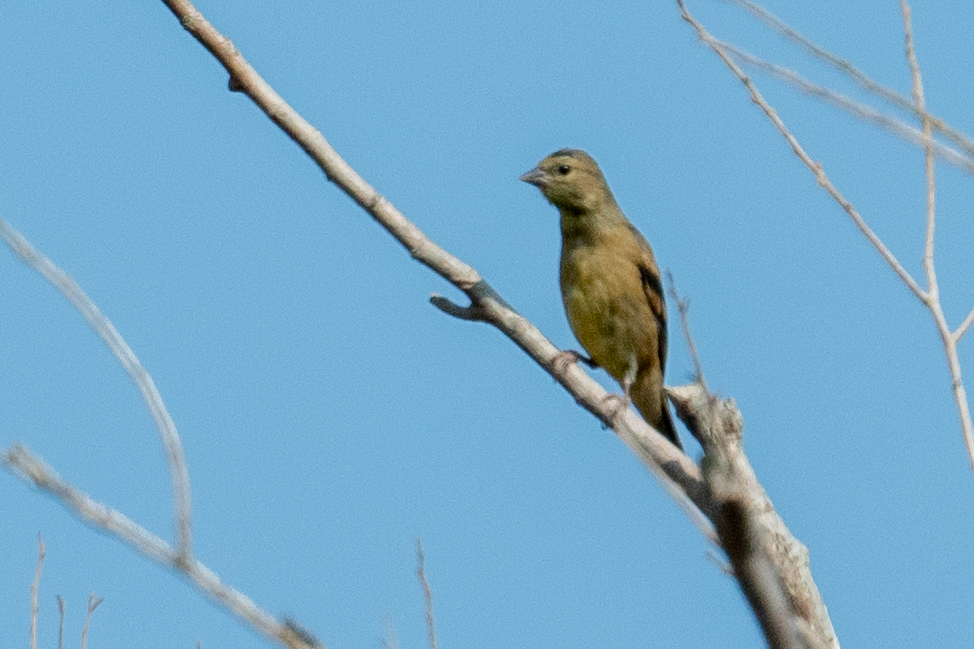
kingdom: Animalia
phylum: Chordata
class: Aves
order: Passeriformes
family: Fringillidae
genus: Spinus
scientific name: Spinus psaltria
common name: Lesser goldfinch
